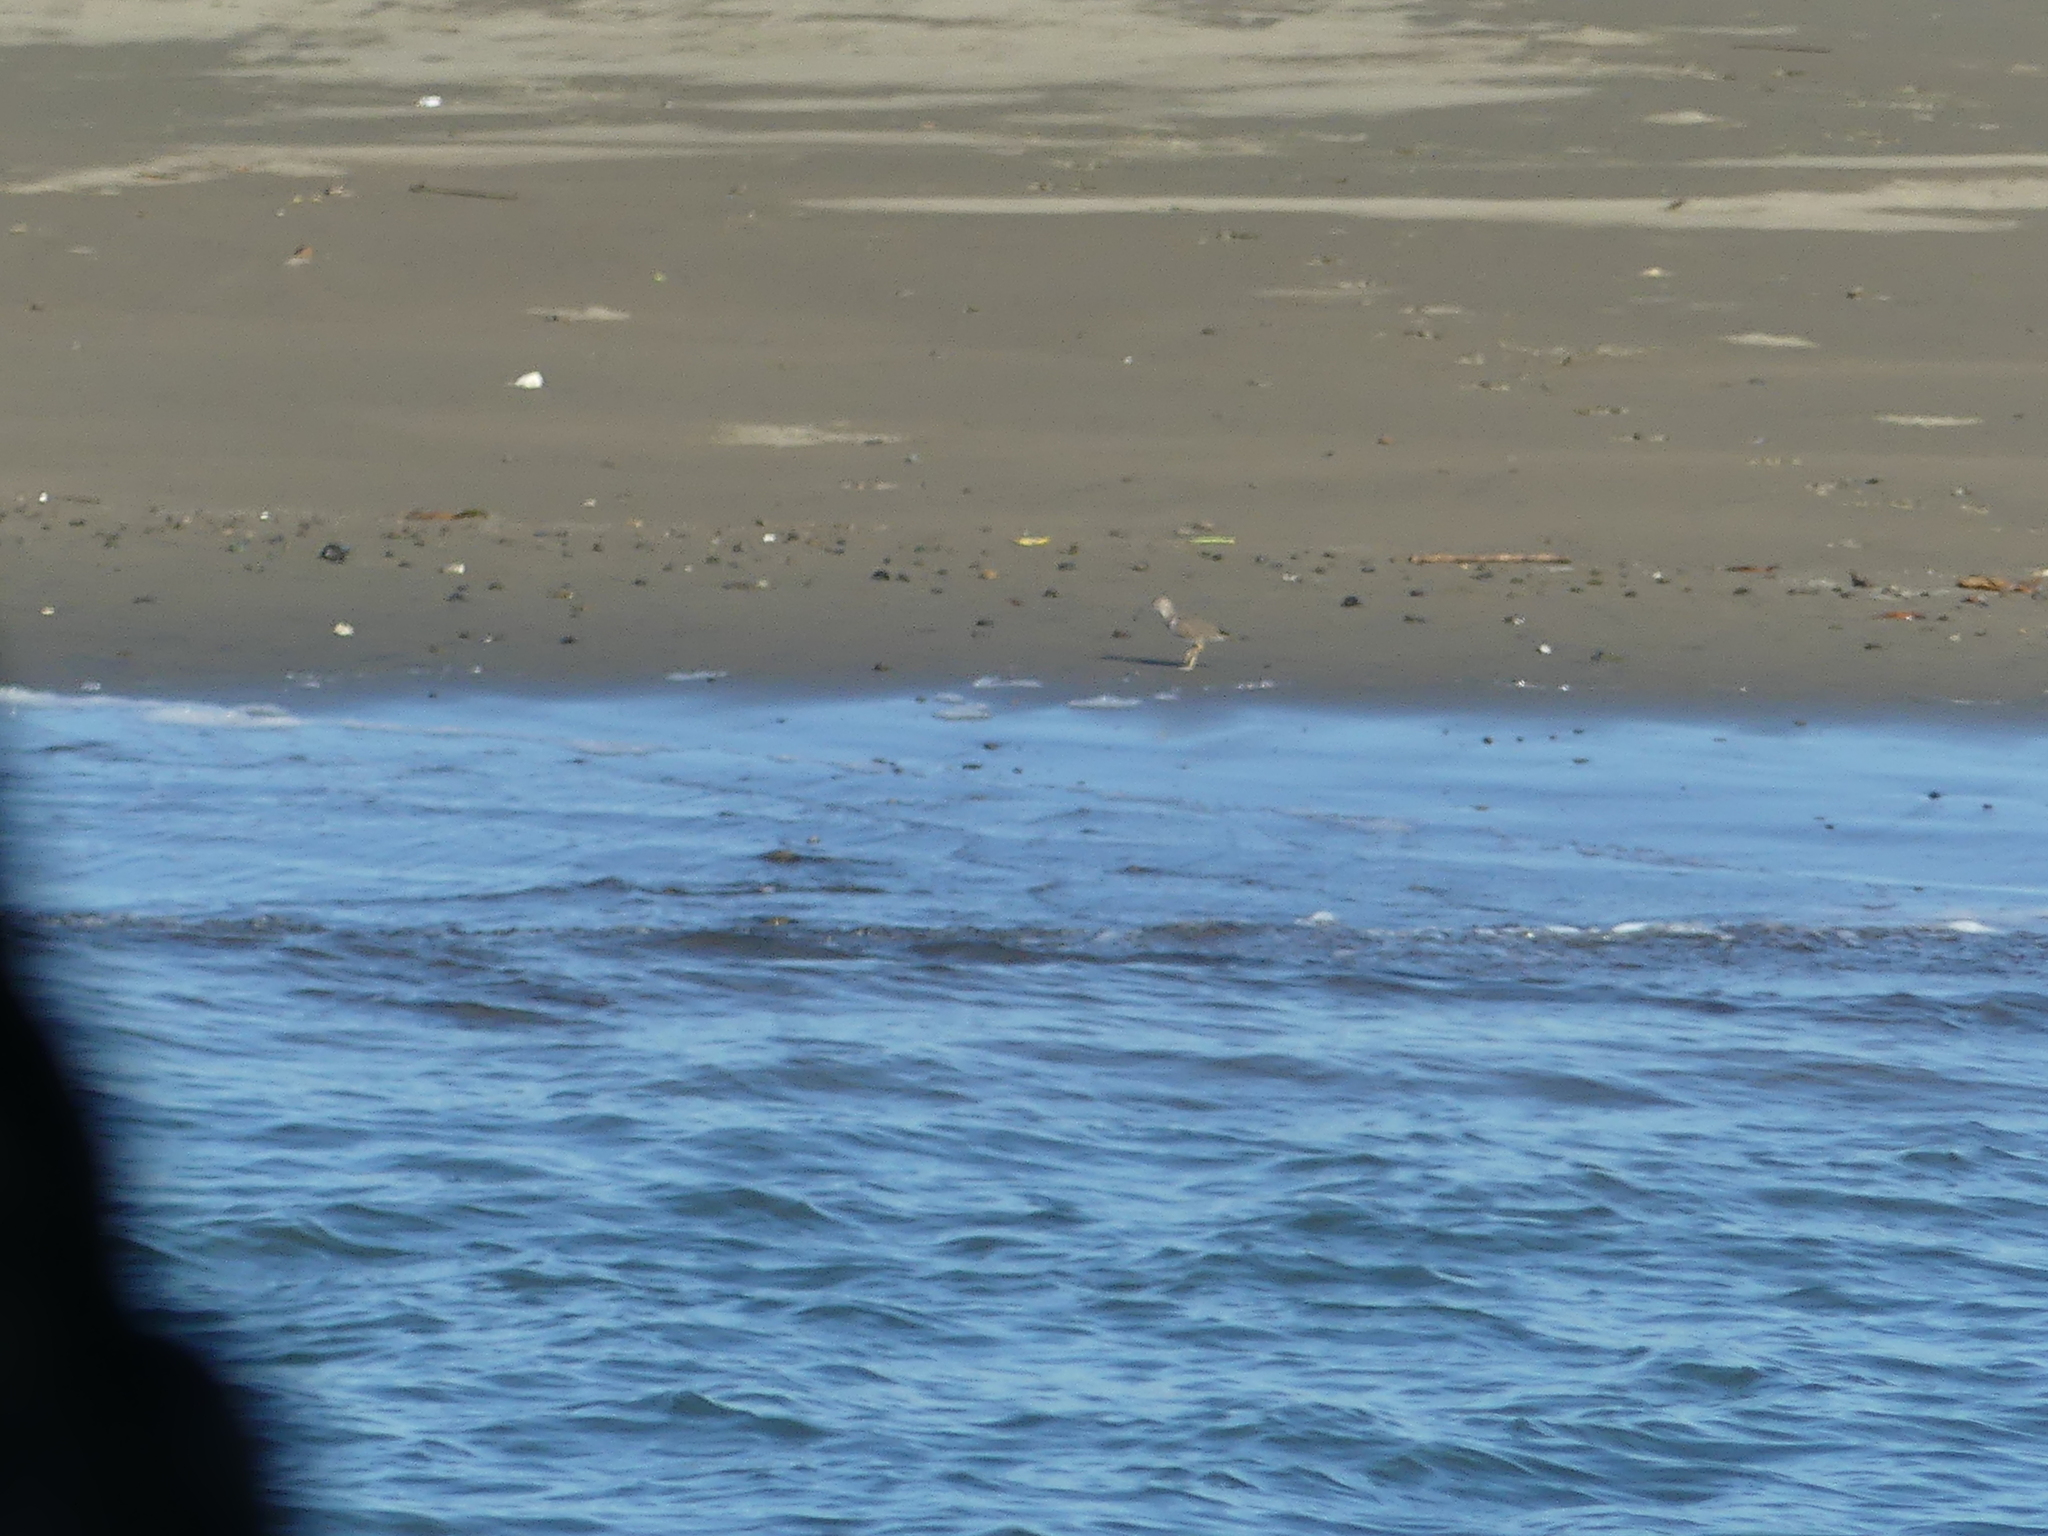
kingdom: Animalia
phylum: Chordata
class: Aves
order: Charadriiformes
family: Scolopacidae
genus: Actitis
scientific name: Actitis macularius
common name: Spotted sandpiper
